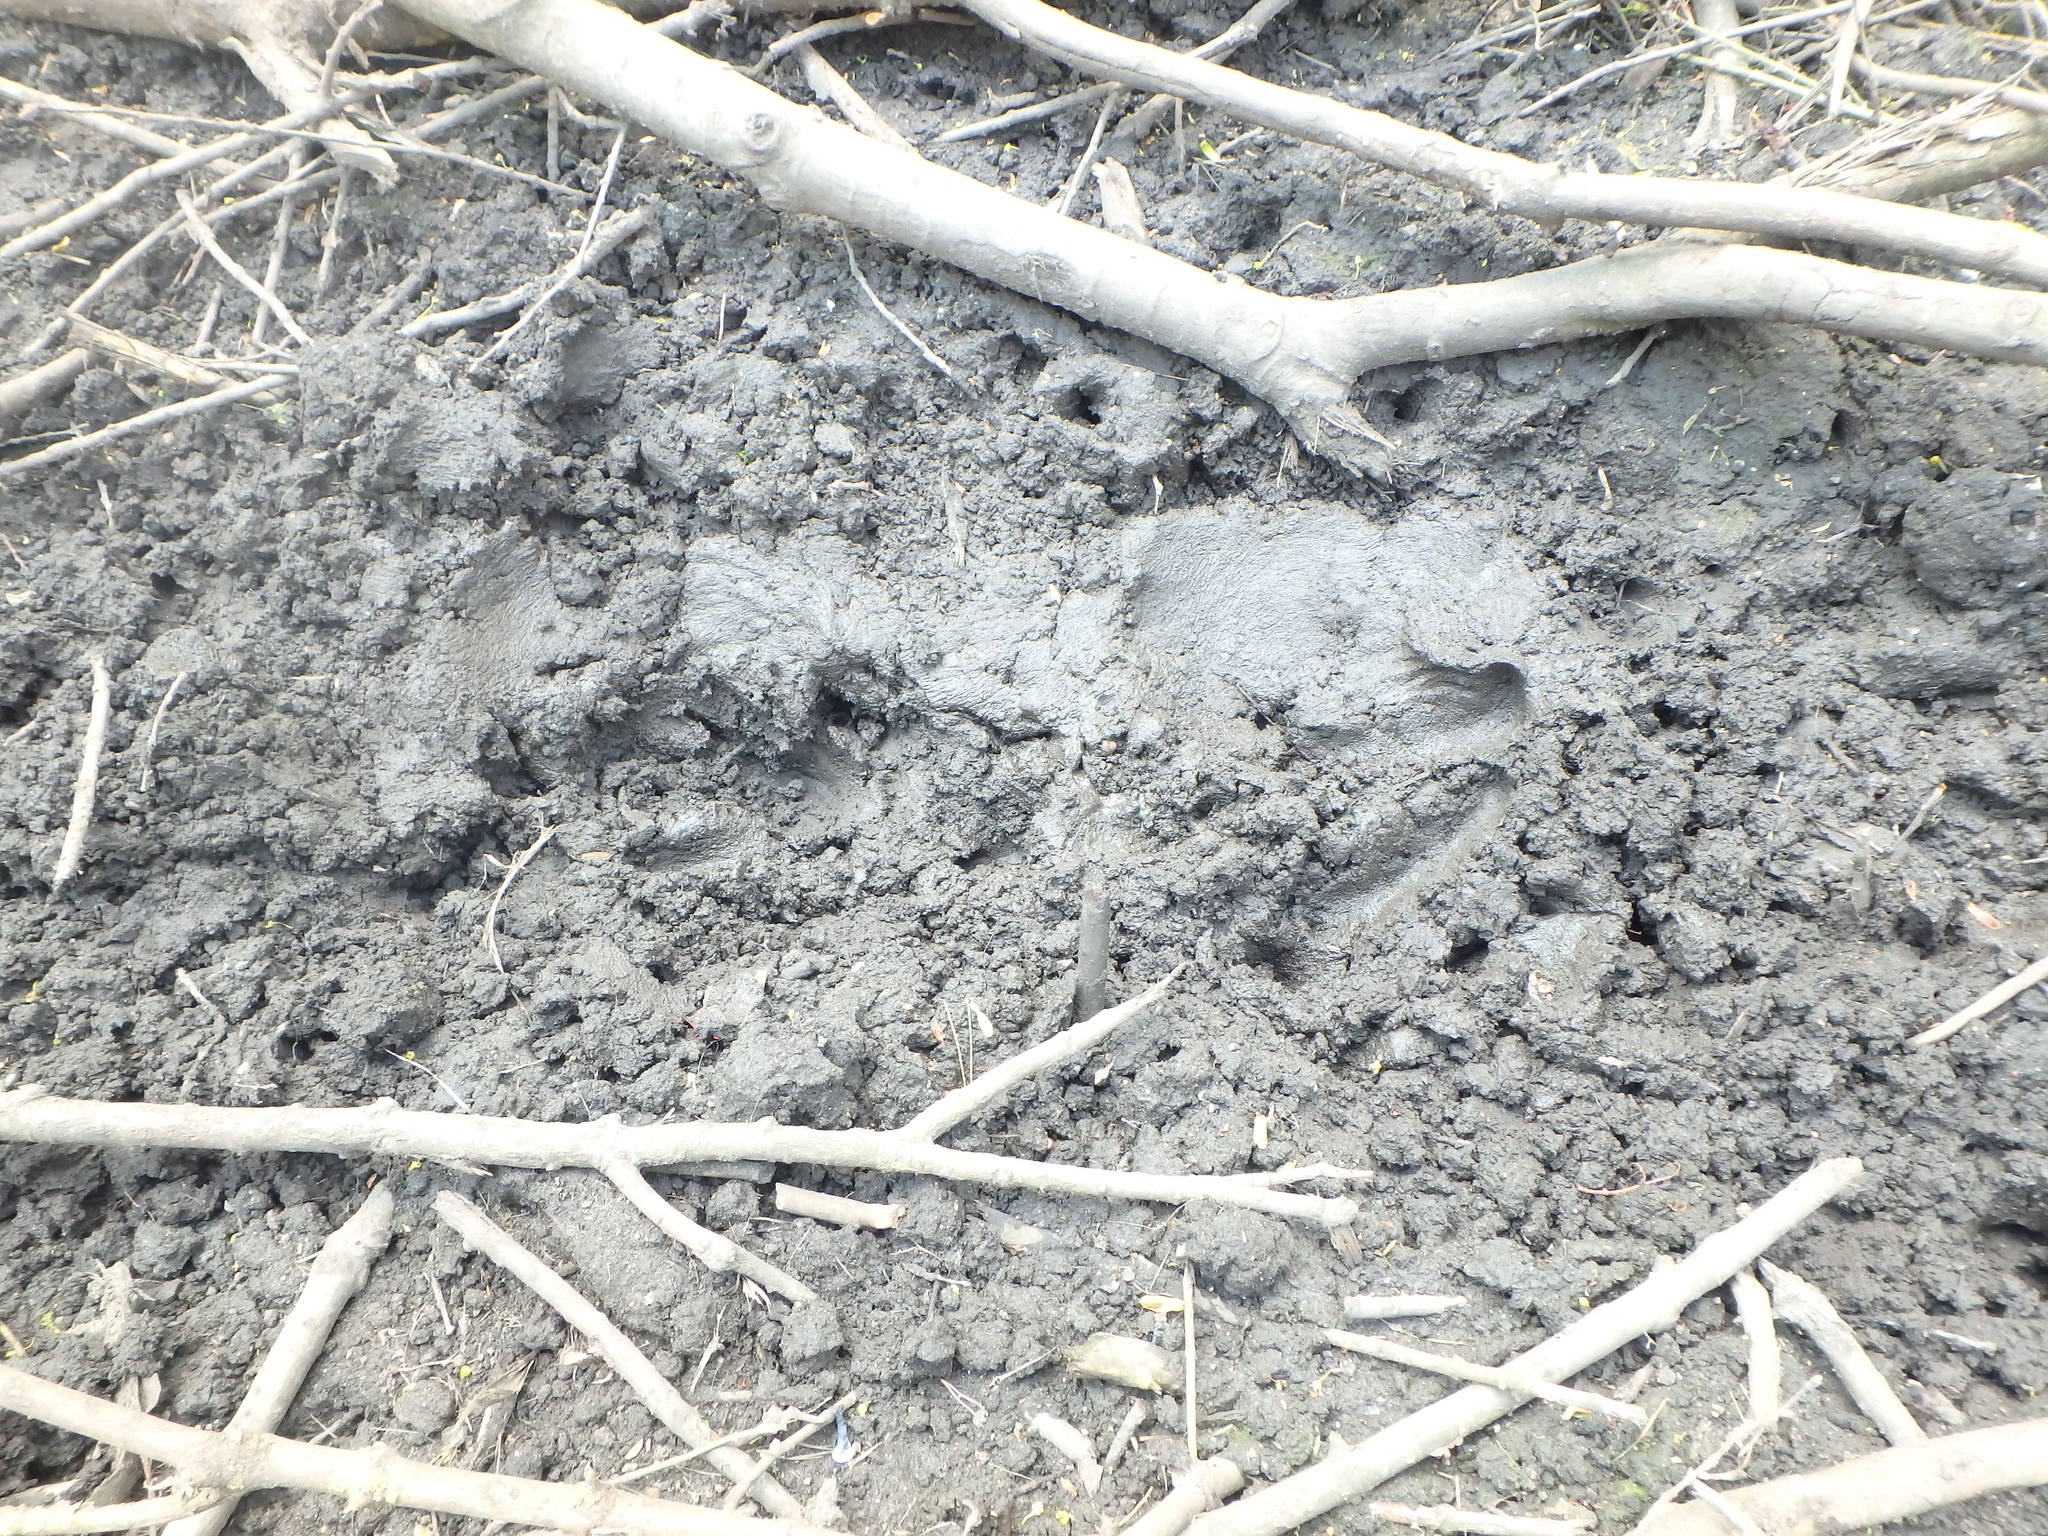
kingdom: Animalia
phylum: Chordata
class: Mammalia
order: Artiodactyla
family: Suidae
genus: Sus
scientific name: Sus scrofa
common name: Wild boar
